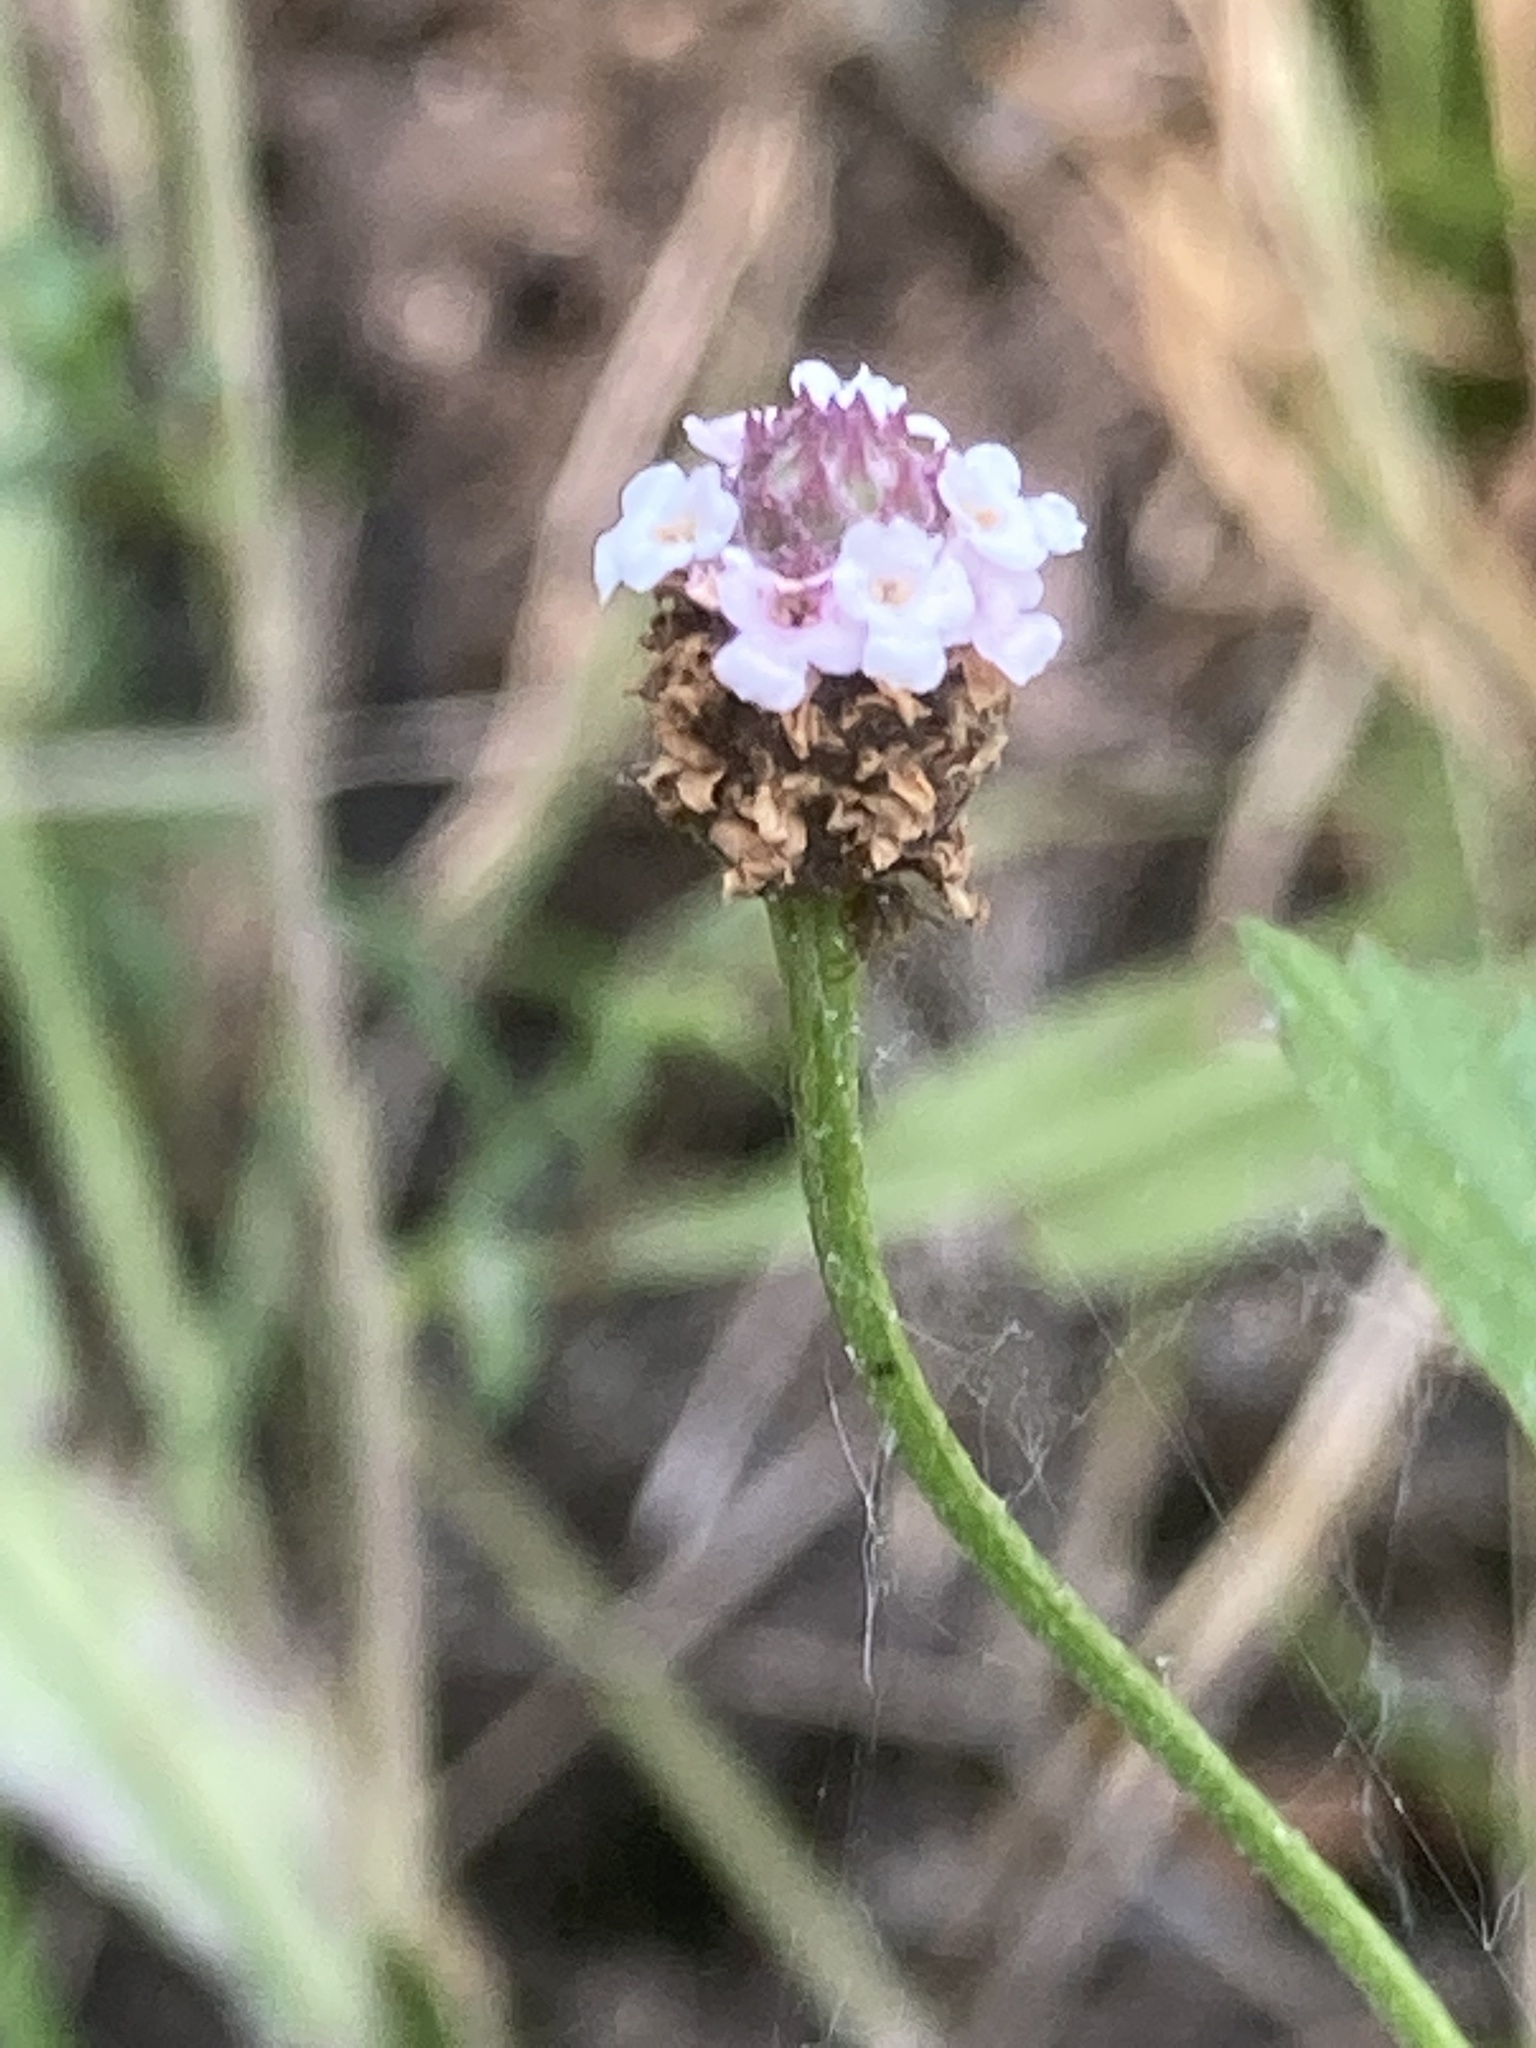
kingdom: Plantae
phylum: Tracheophyta
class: Magnoliopsida
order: Lamiales
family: Verbenaceae
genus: Phyla
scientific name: Phyla lanceolata
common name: Northern fogfruit
